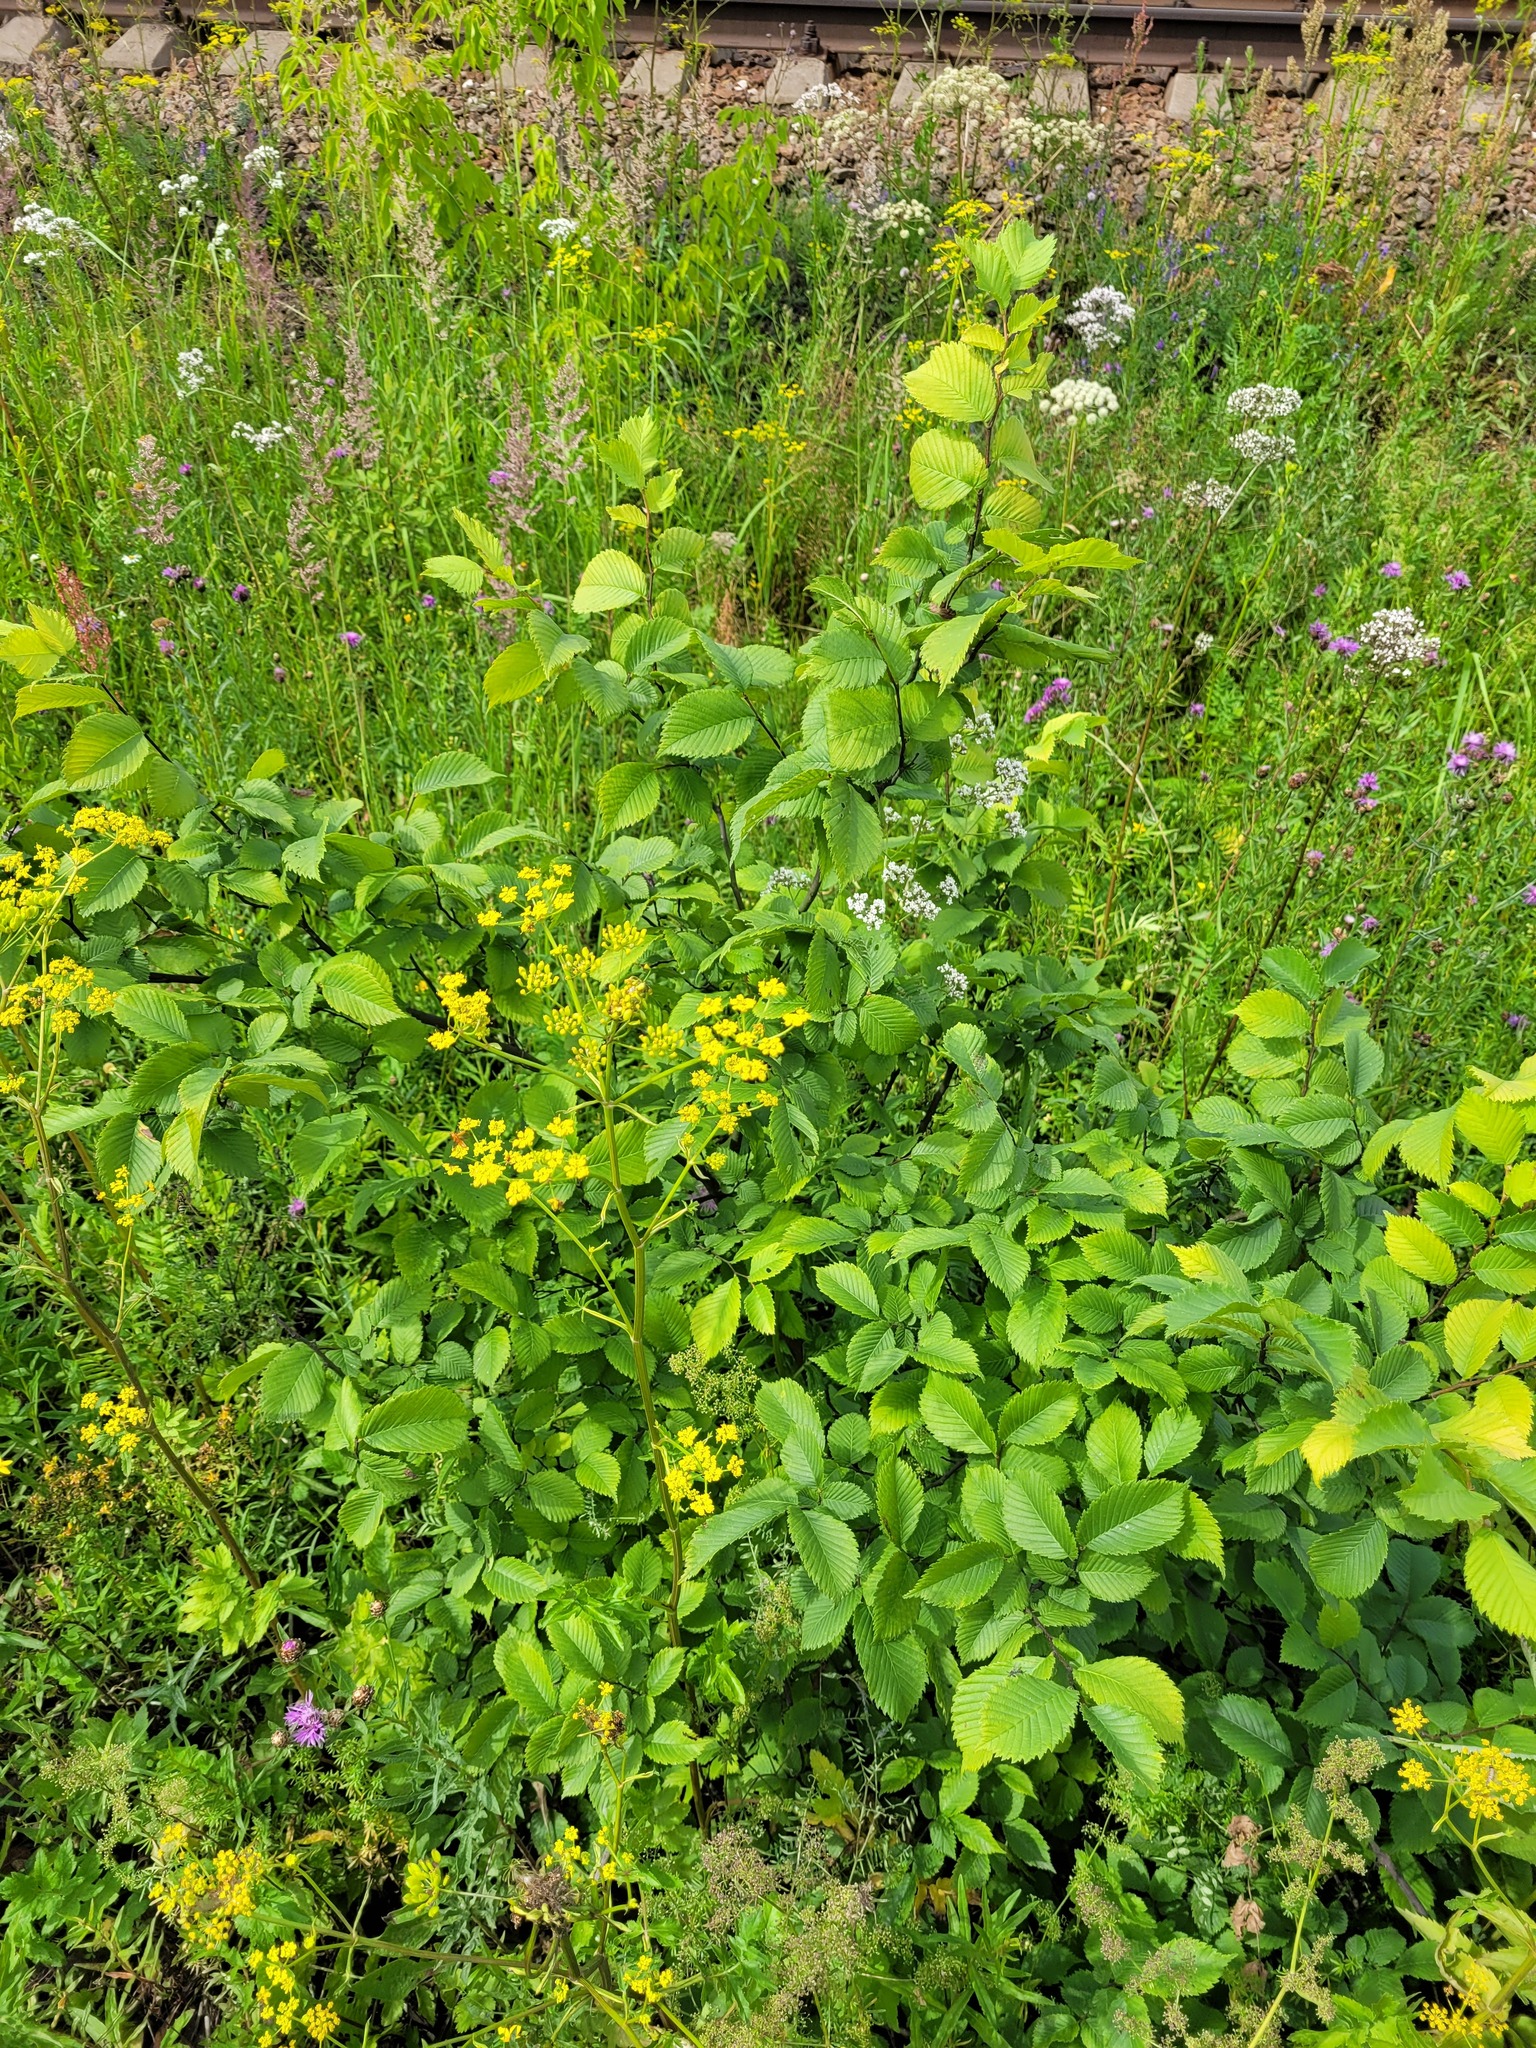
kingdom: Plantae
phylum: Tracheophyta
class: Magnoliopsida
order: Rosales
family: Ulmaceae
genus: Ulmus
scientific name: Ulmus laevis
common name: European white-elm
